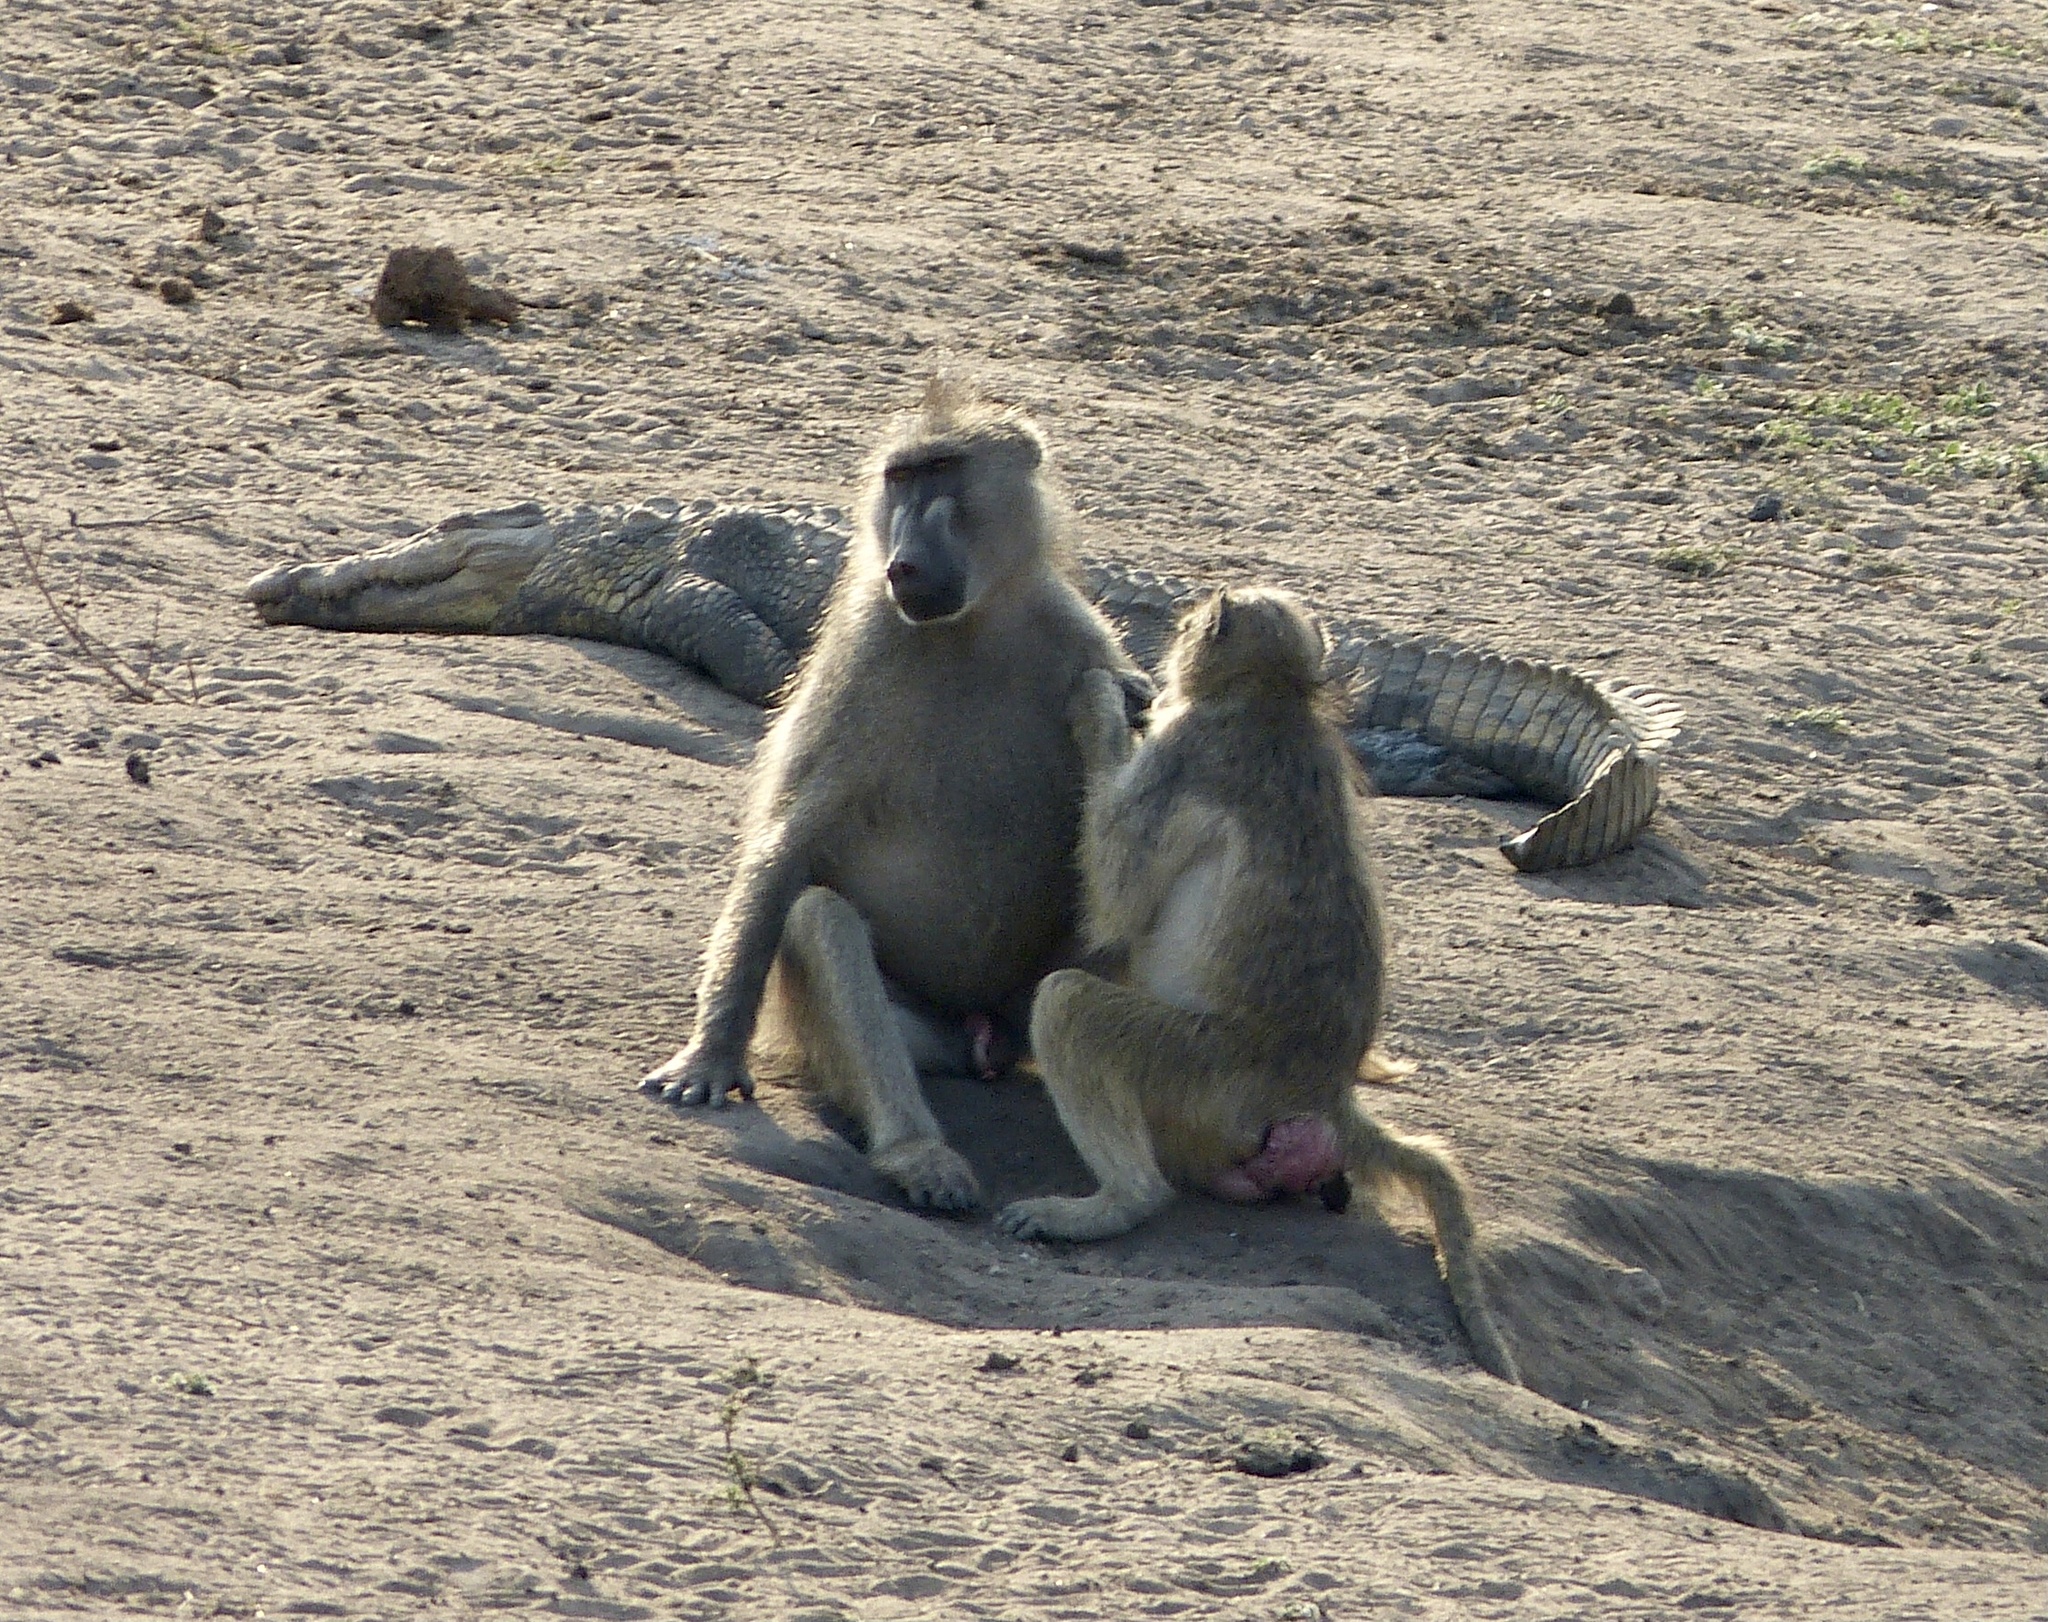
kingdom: Animalia
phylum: Chordata
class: Mammalia
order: Primates
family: Cercopithecidae
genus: Papio
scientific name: Papio ursinus
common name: Chacma baboon
